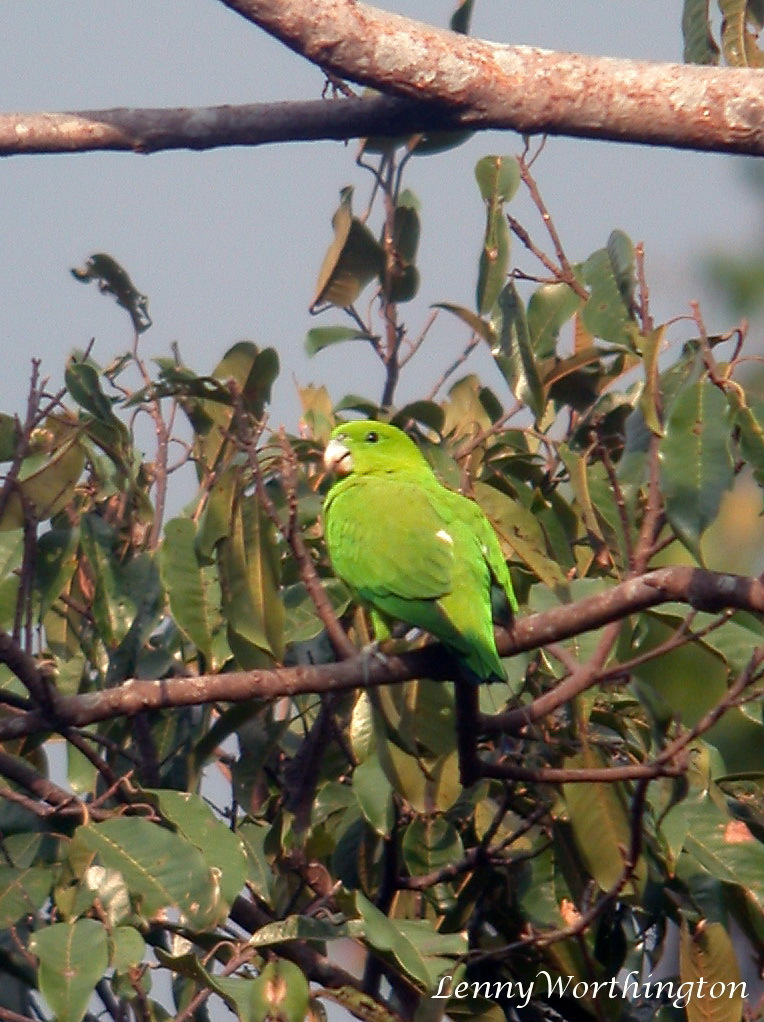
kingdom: Animalia
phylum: Chordata
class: Aves
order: Psittaciformes
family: Psittacidae
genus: Prioniturus
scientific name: Prioniturus luconensis
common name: Green racket-tail
